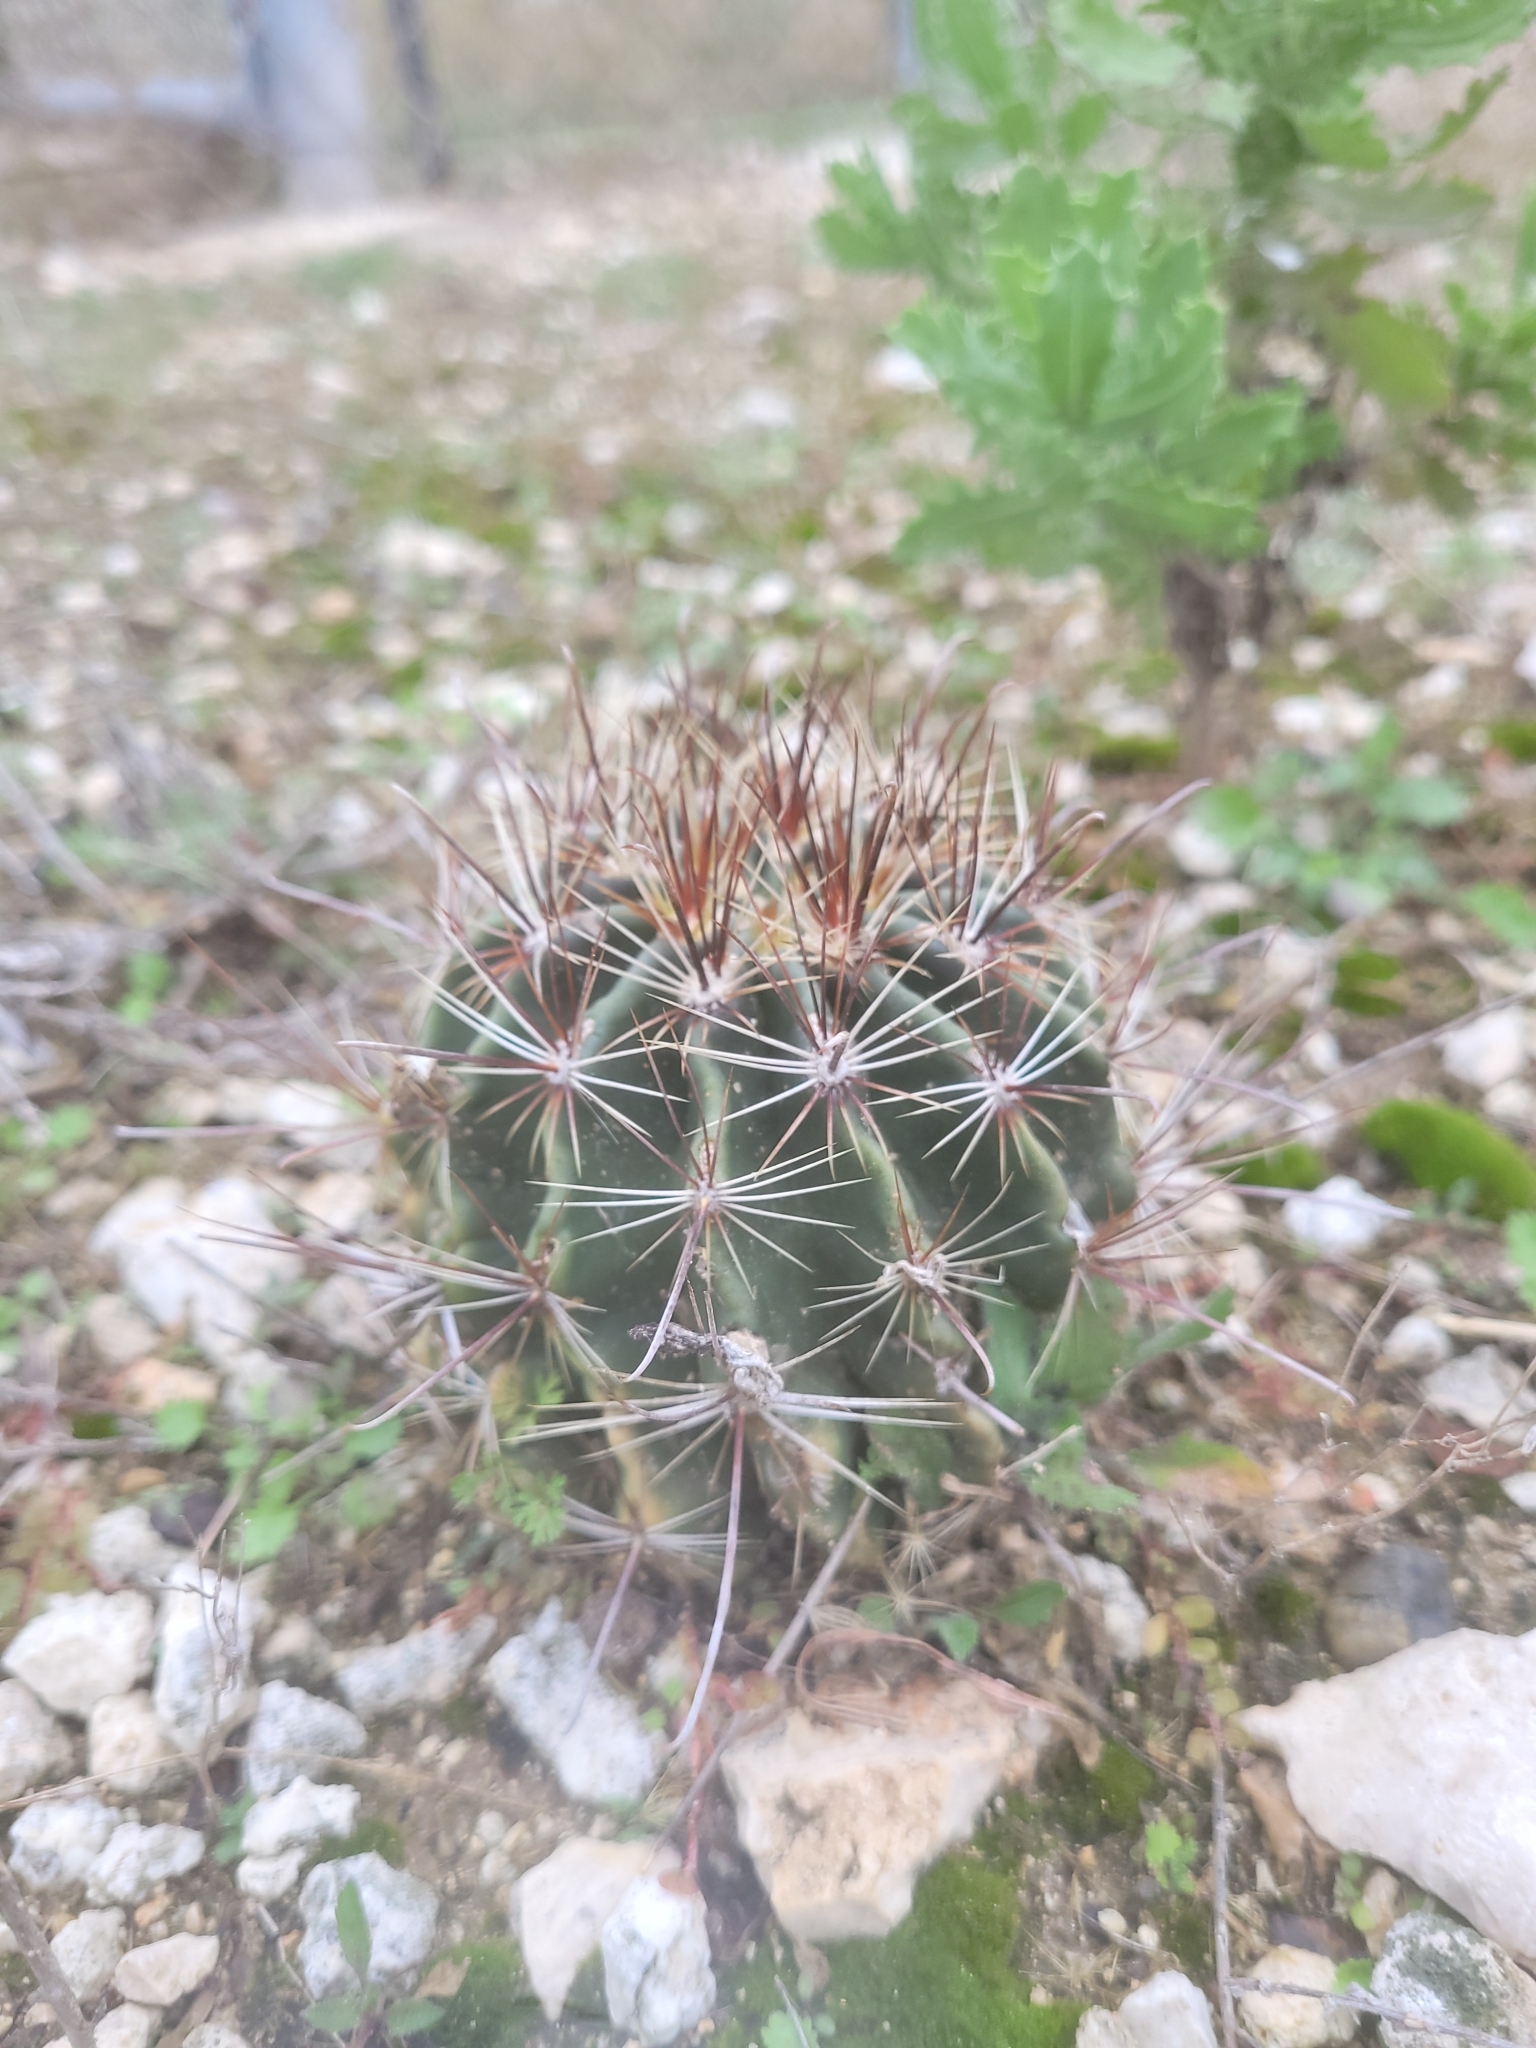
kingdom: Plantae
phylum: Tracheophyta
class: Magnoliopsida
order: Caryophyllales
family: Cactaceae
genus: Thelocactus
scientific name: Thelocactus setispinus
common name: Miniature barrel cactus
